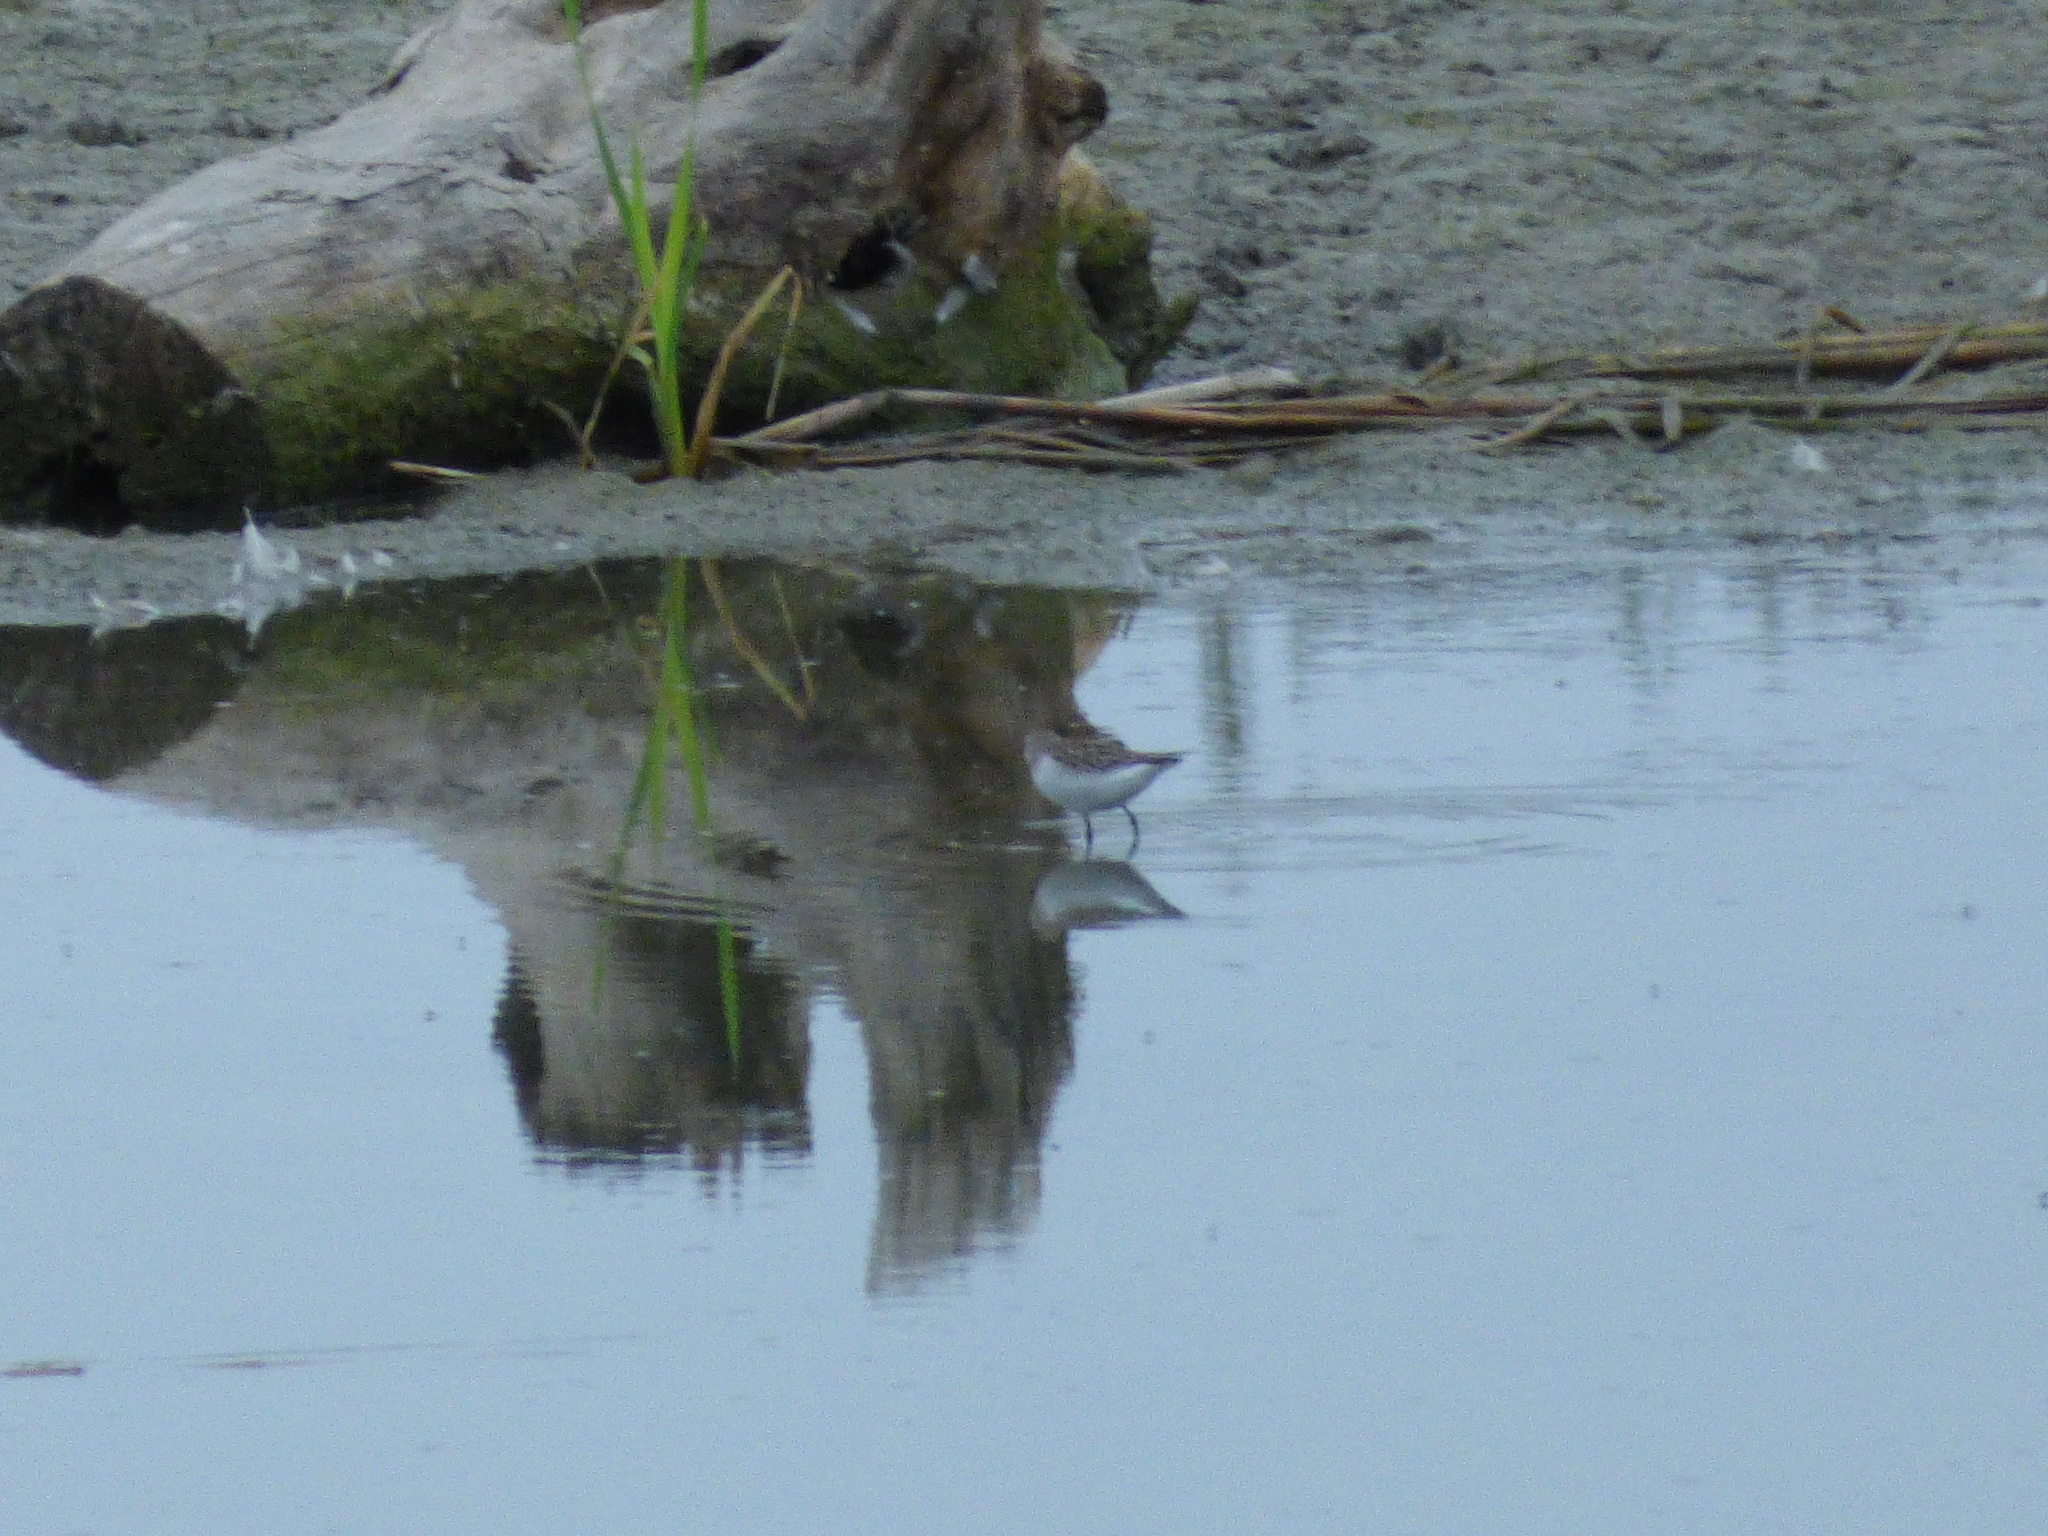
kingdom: Animalia
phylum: Chordata
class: Aves
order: Charadriiformes
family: Scolopacidae
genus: Calidris
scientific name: Calidris pusilla
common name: Semipalmated sandpiper
